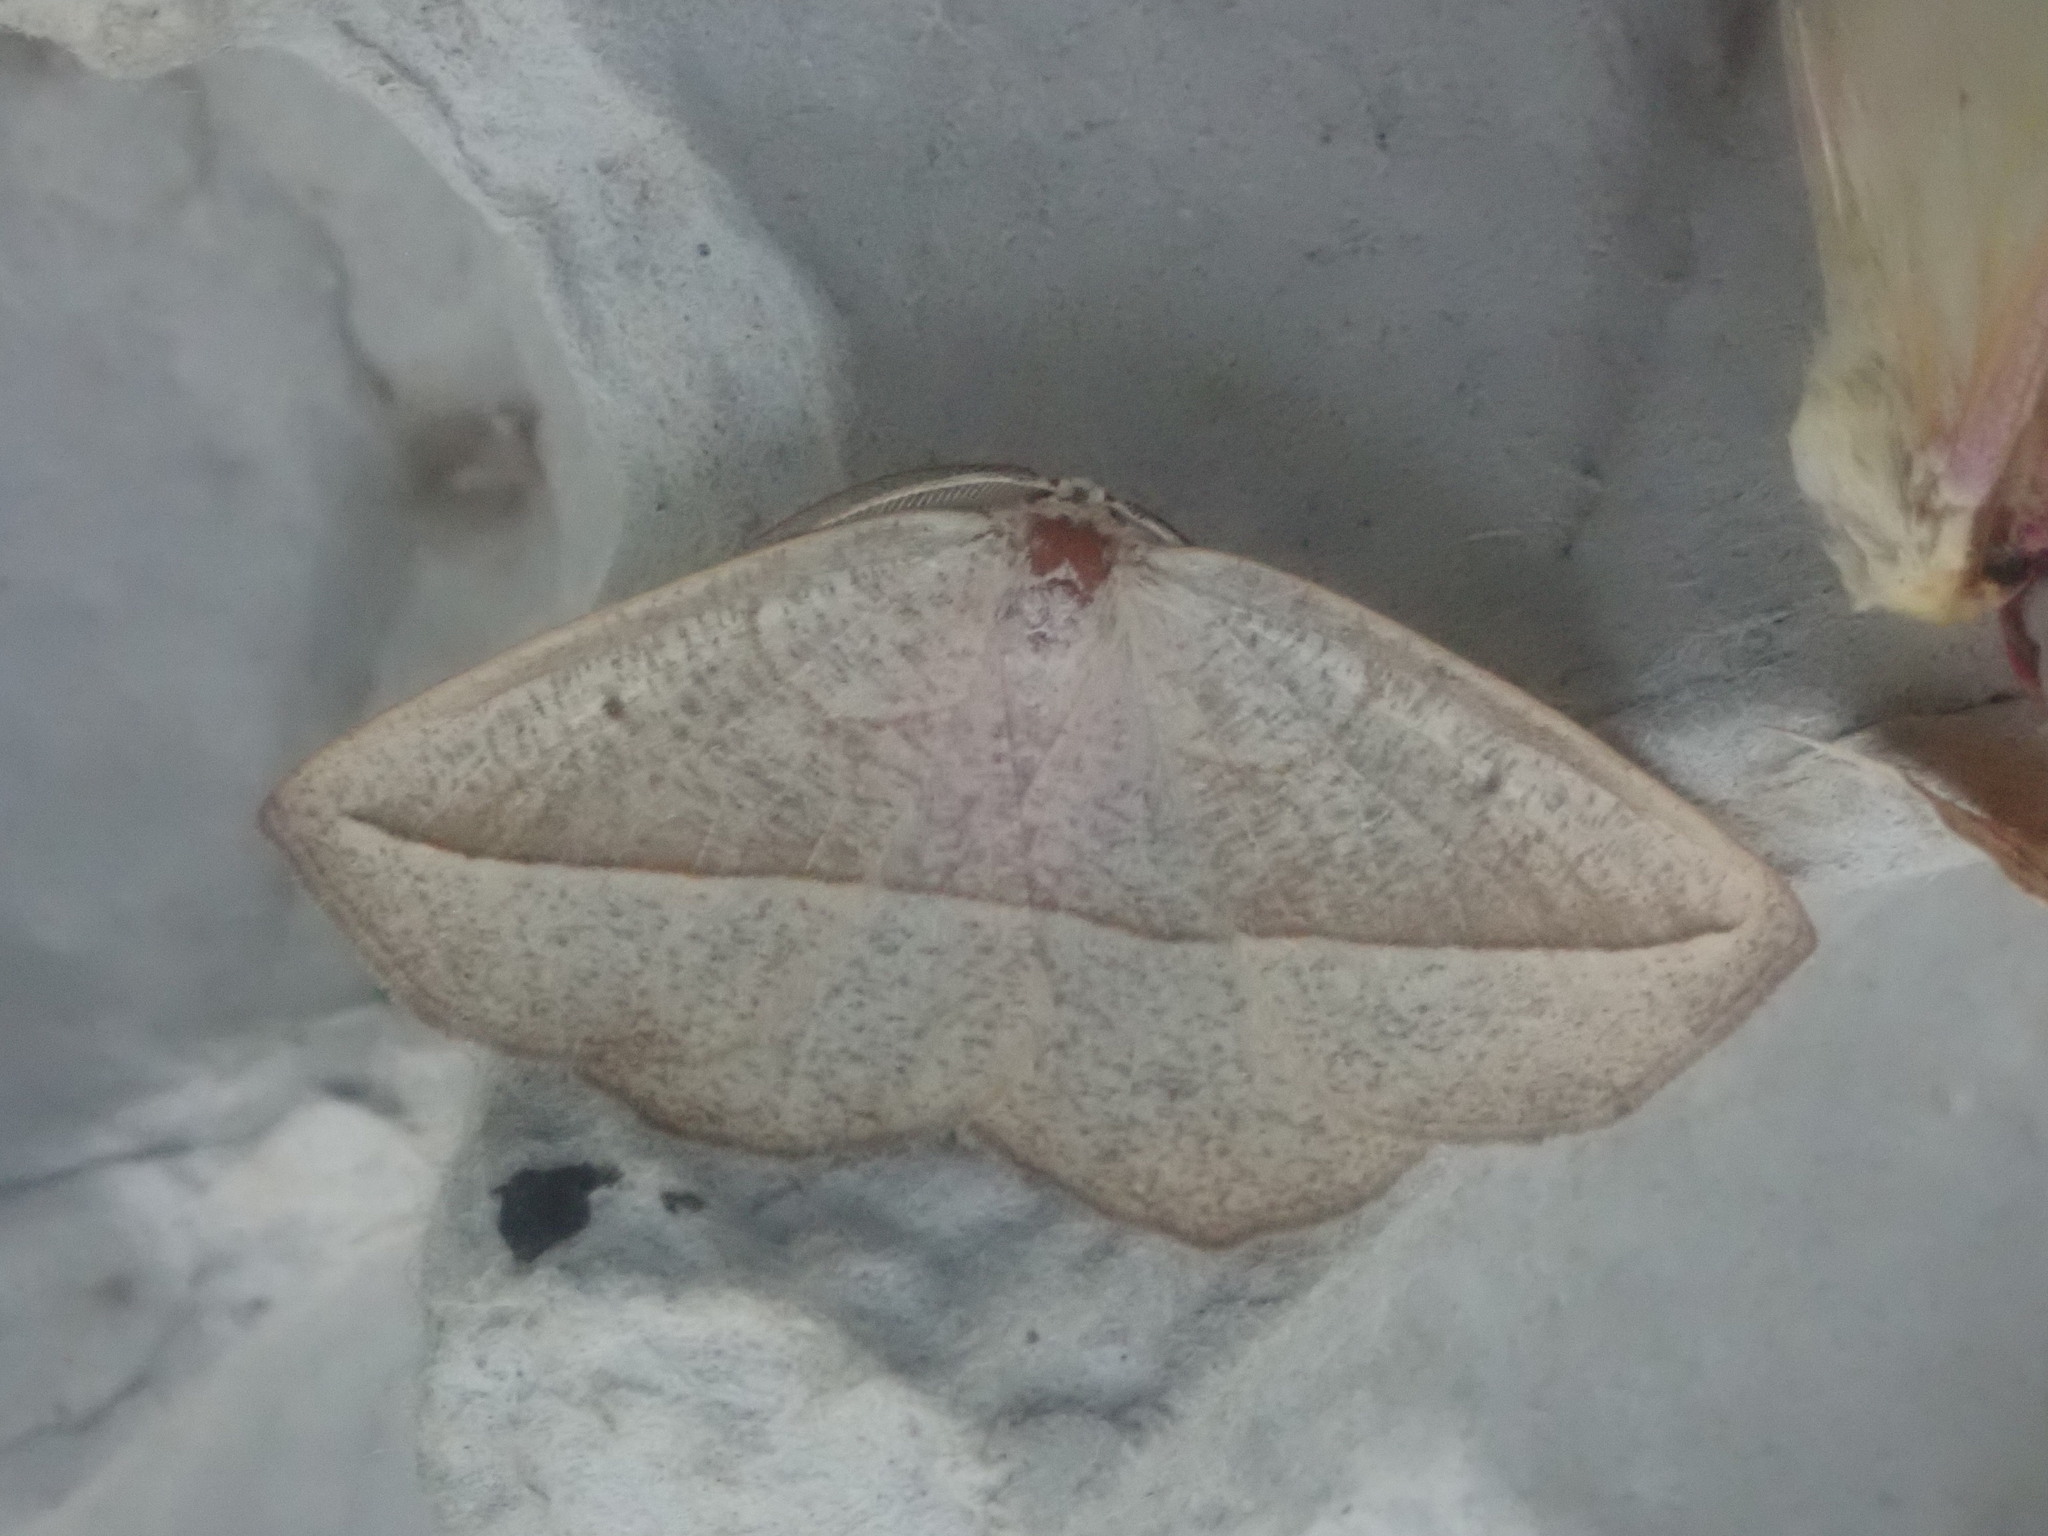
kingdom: Animalia
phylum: Arthropoda
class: Insecta
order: Lepidoptera
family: Geometridae
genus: Eusarca
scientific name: Eusarca confusaria
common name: Confused eusarca
